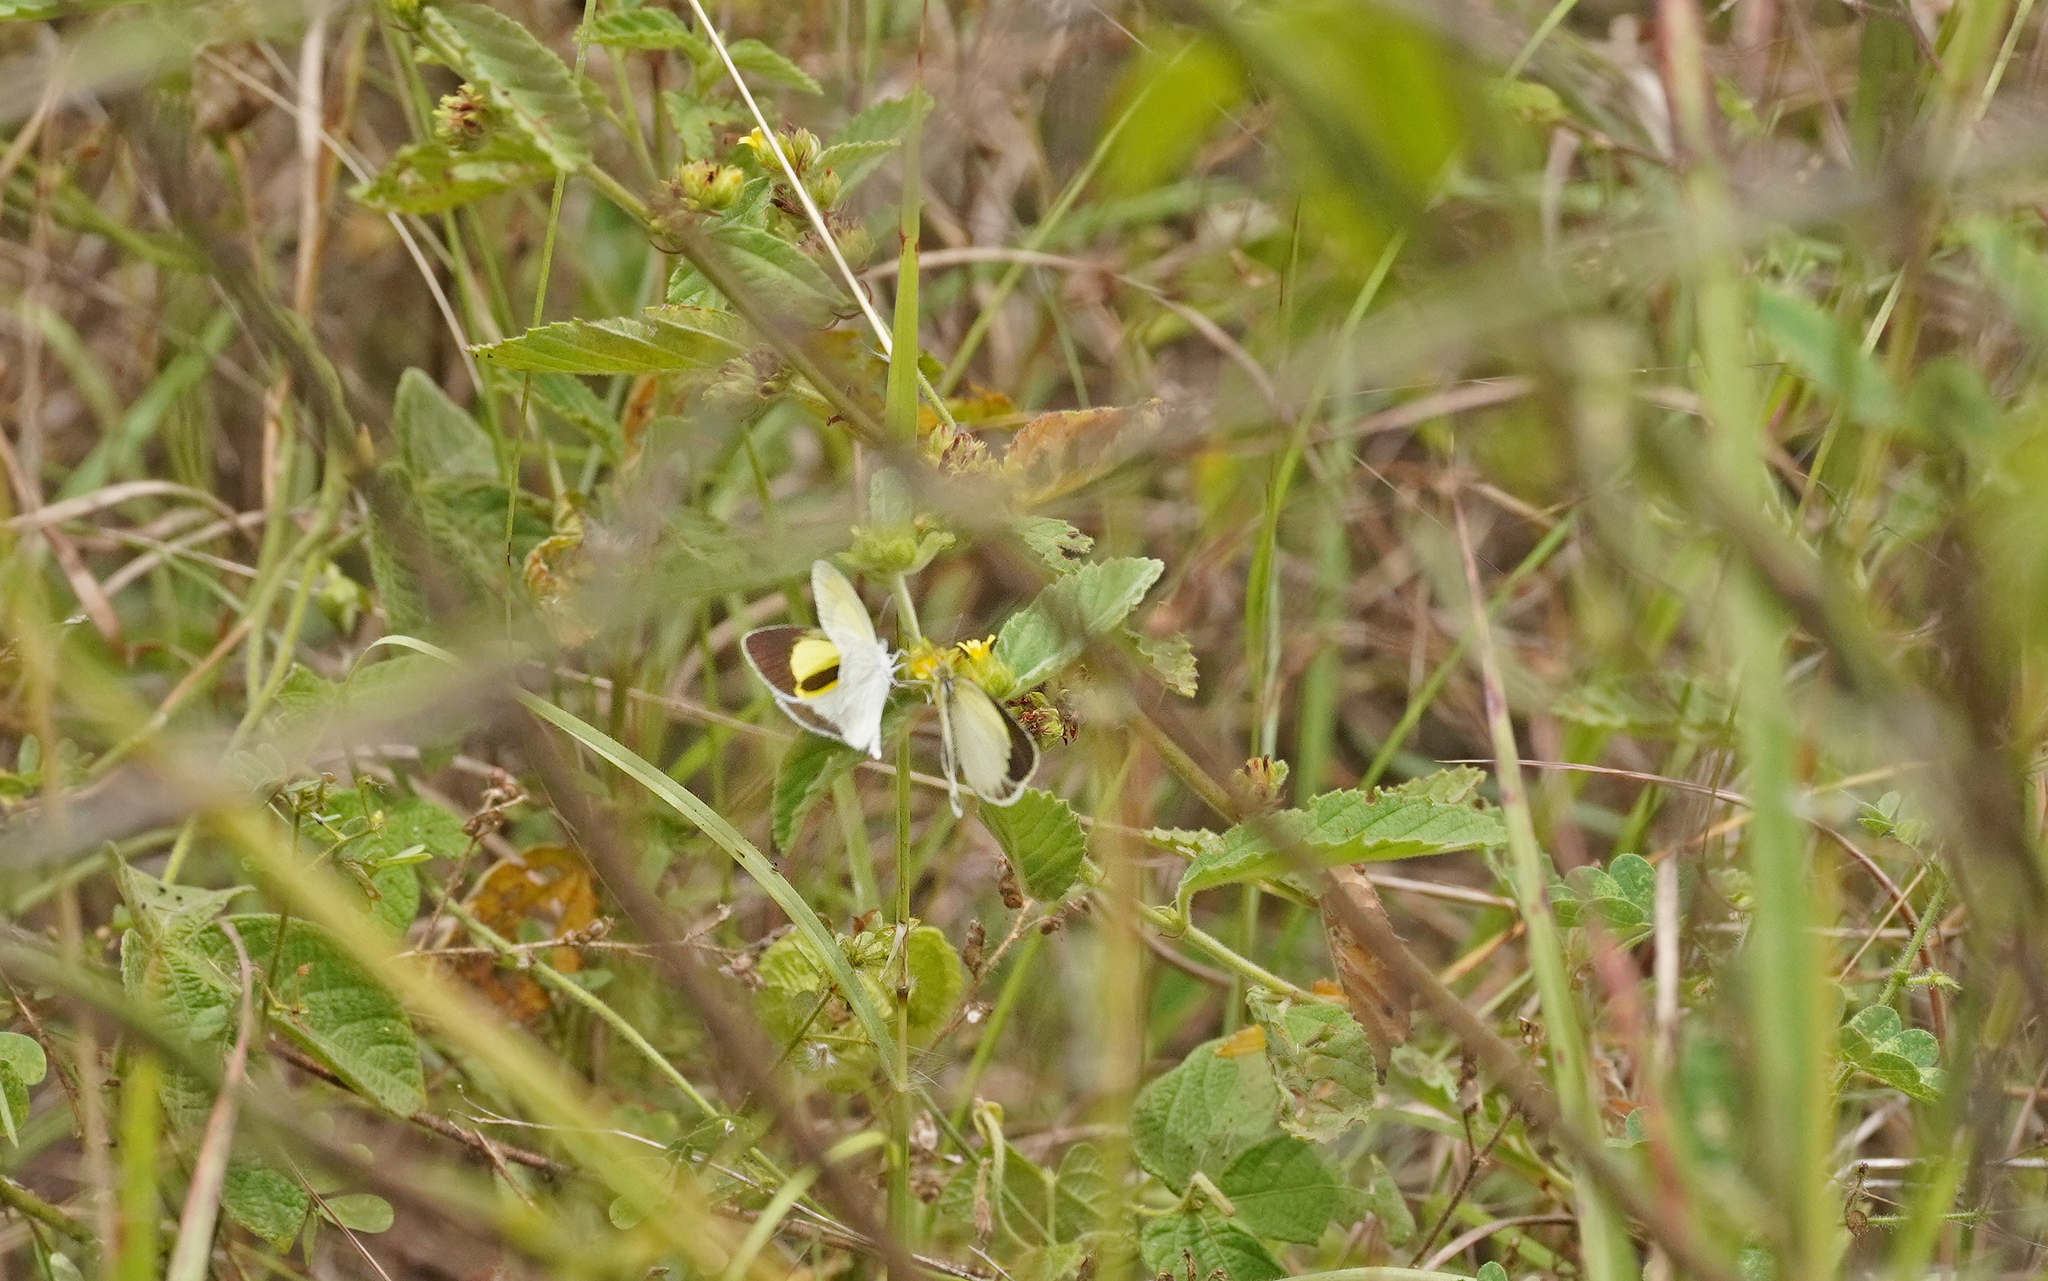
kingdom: Animalia
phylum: Arthropoda
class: Insecta
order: Lepidoptera
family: Pieridae
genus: Leptophobia
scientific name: Leptophobia aripa
